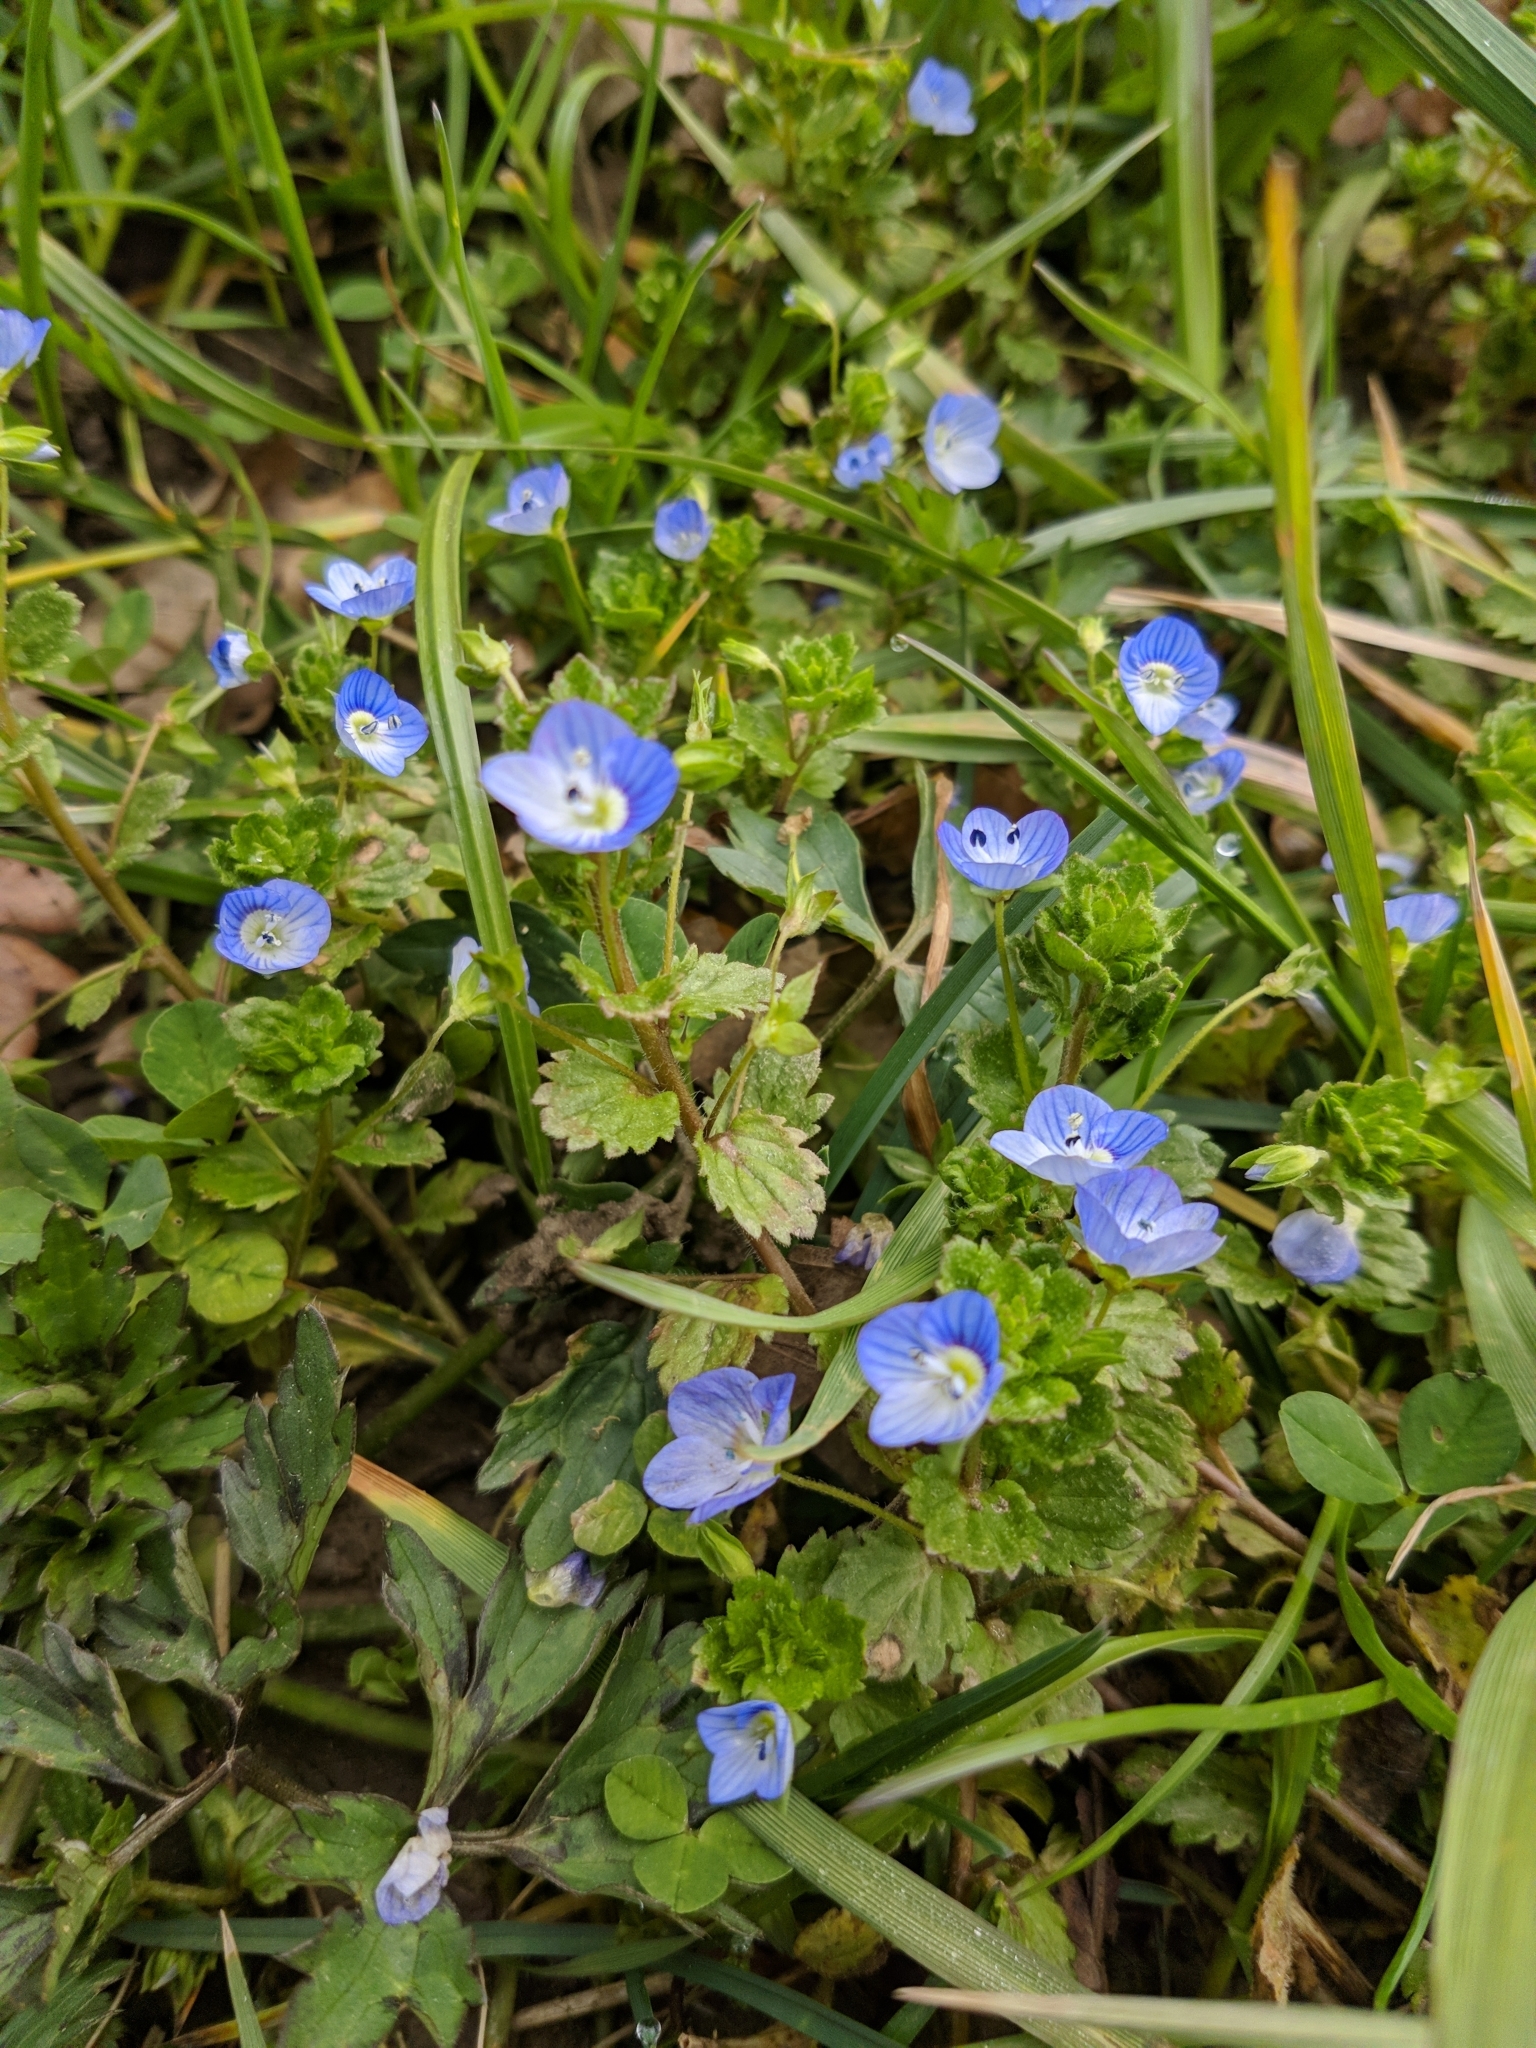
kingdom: Plantae
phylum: Tracheophyta
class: Magnoliopsida
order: Lamiales
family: Plantaginaceae
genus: Veronica
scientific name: Veronica persica
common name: Common field-speedwell
